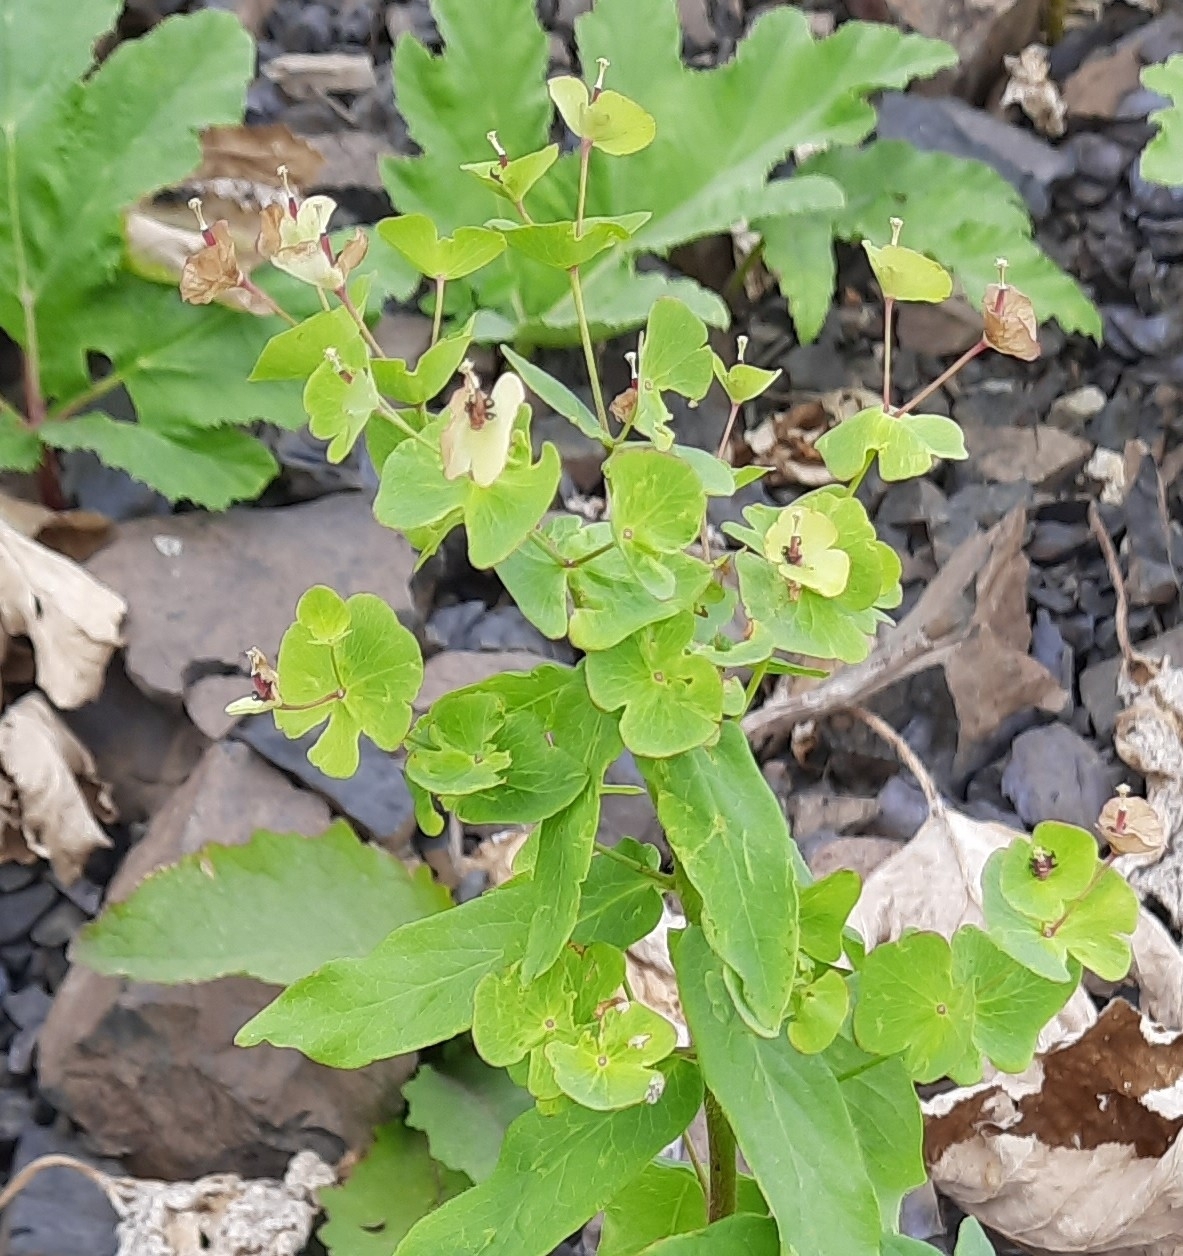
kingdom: Plantae
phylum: Tracheophyta
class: Magnoliopsida
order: Malpighiales
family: Euphorbiaceae
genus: Euphorbia
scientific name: Euphorbia iberica
